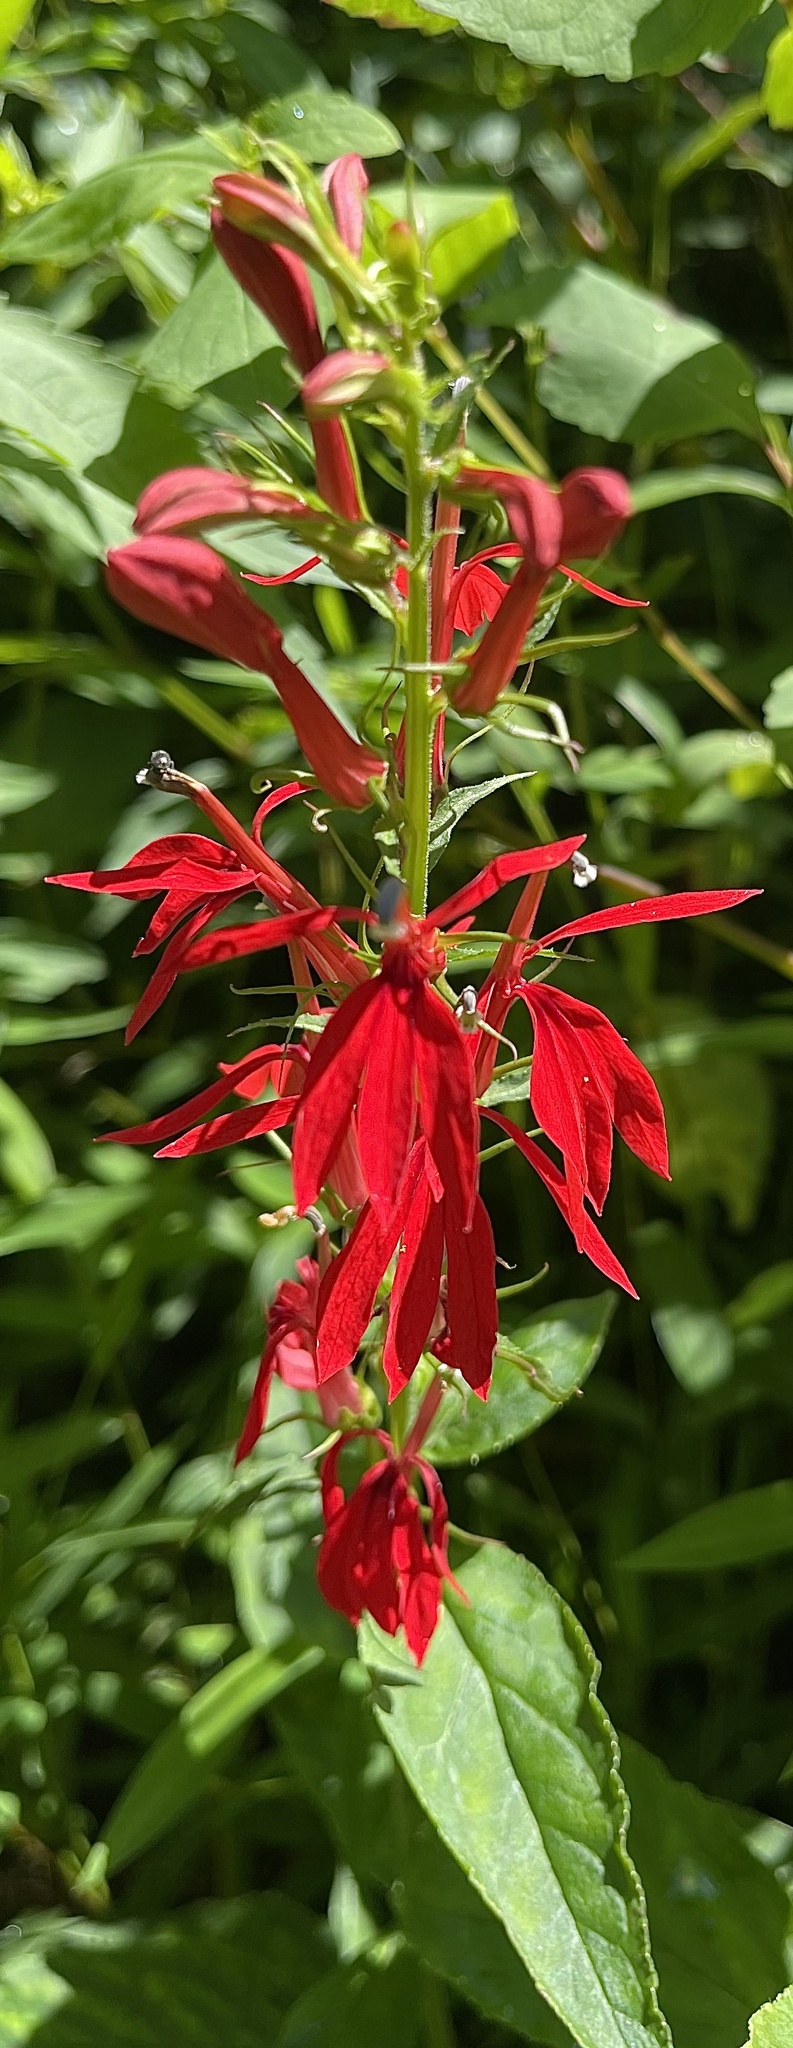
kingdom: Plantae
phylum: Tracheophyta
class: Magnoliopsida
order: Asterales
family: Campanulaceae
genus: Lobelia
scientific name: Lobelia cardinalis
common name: Cardinal flower
